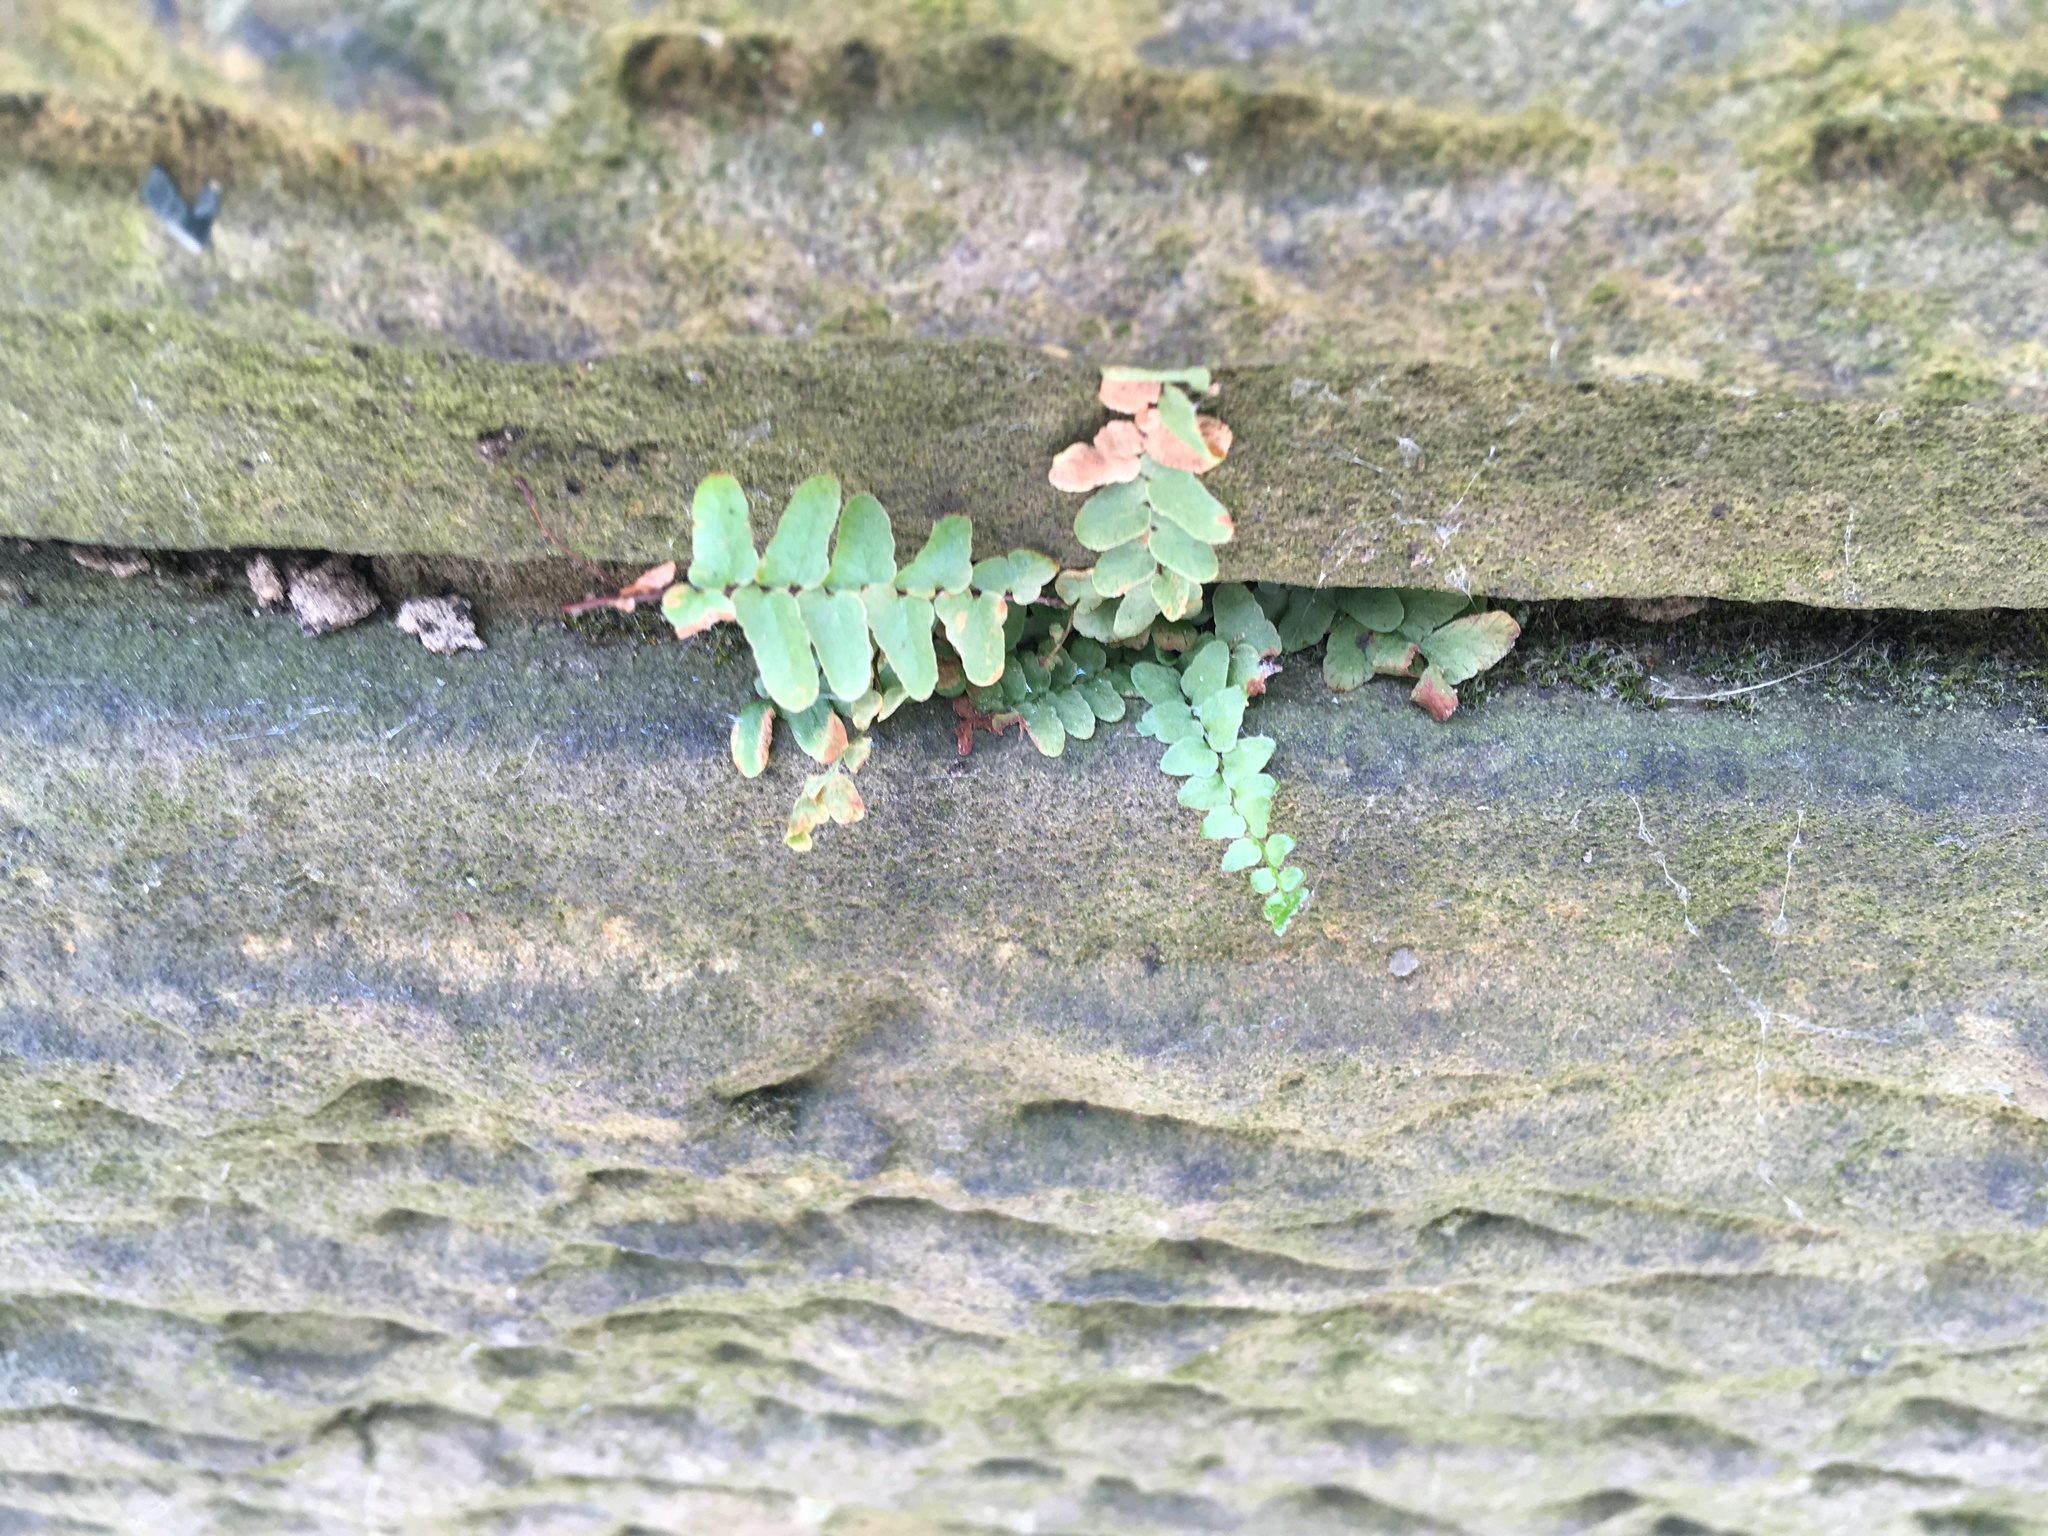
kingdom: Plantae
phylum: Tracheophyta
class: Polypodiopsida
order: Polypodiales
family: Aspleniaceae
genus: Asplenium
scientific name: Asplenium platyneuron
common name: Ebony spleenwort
